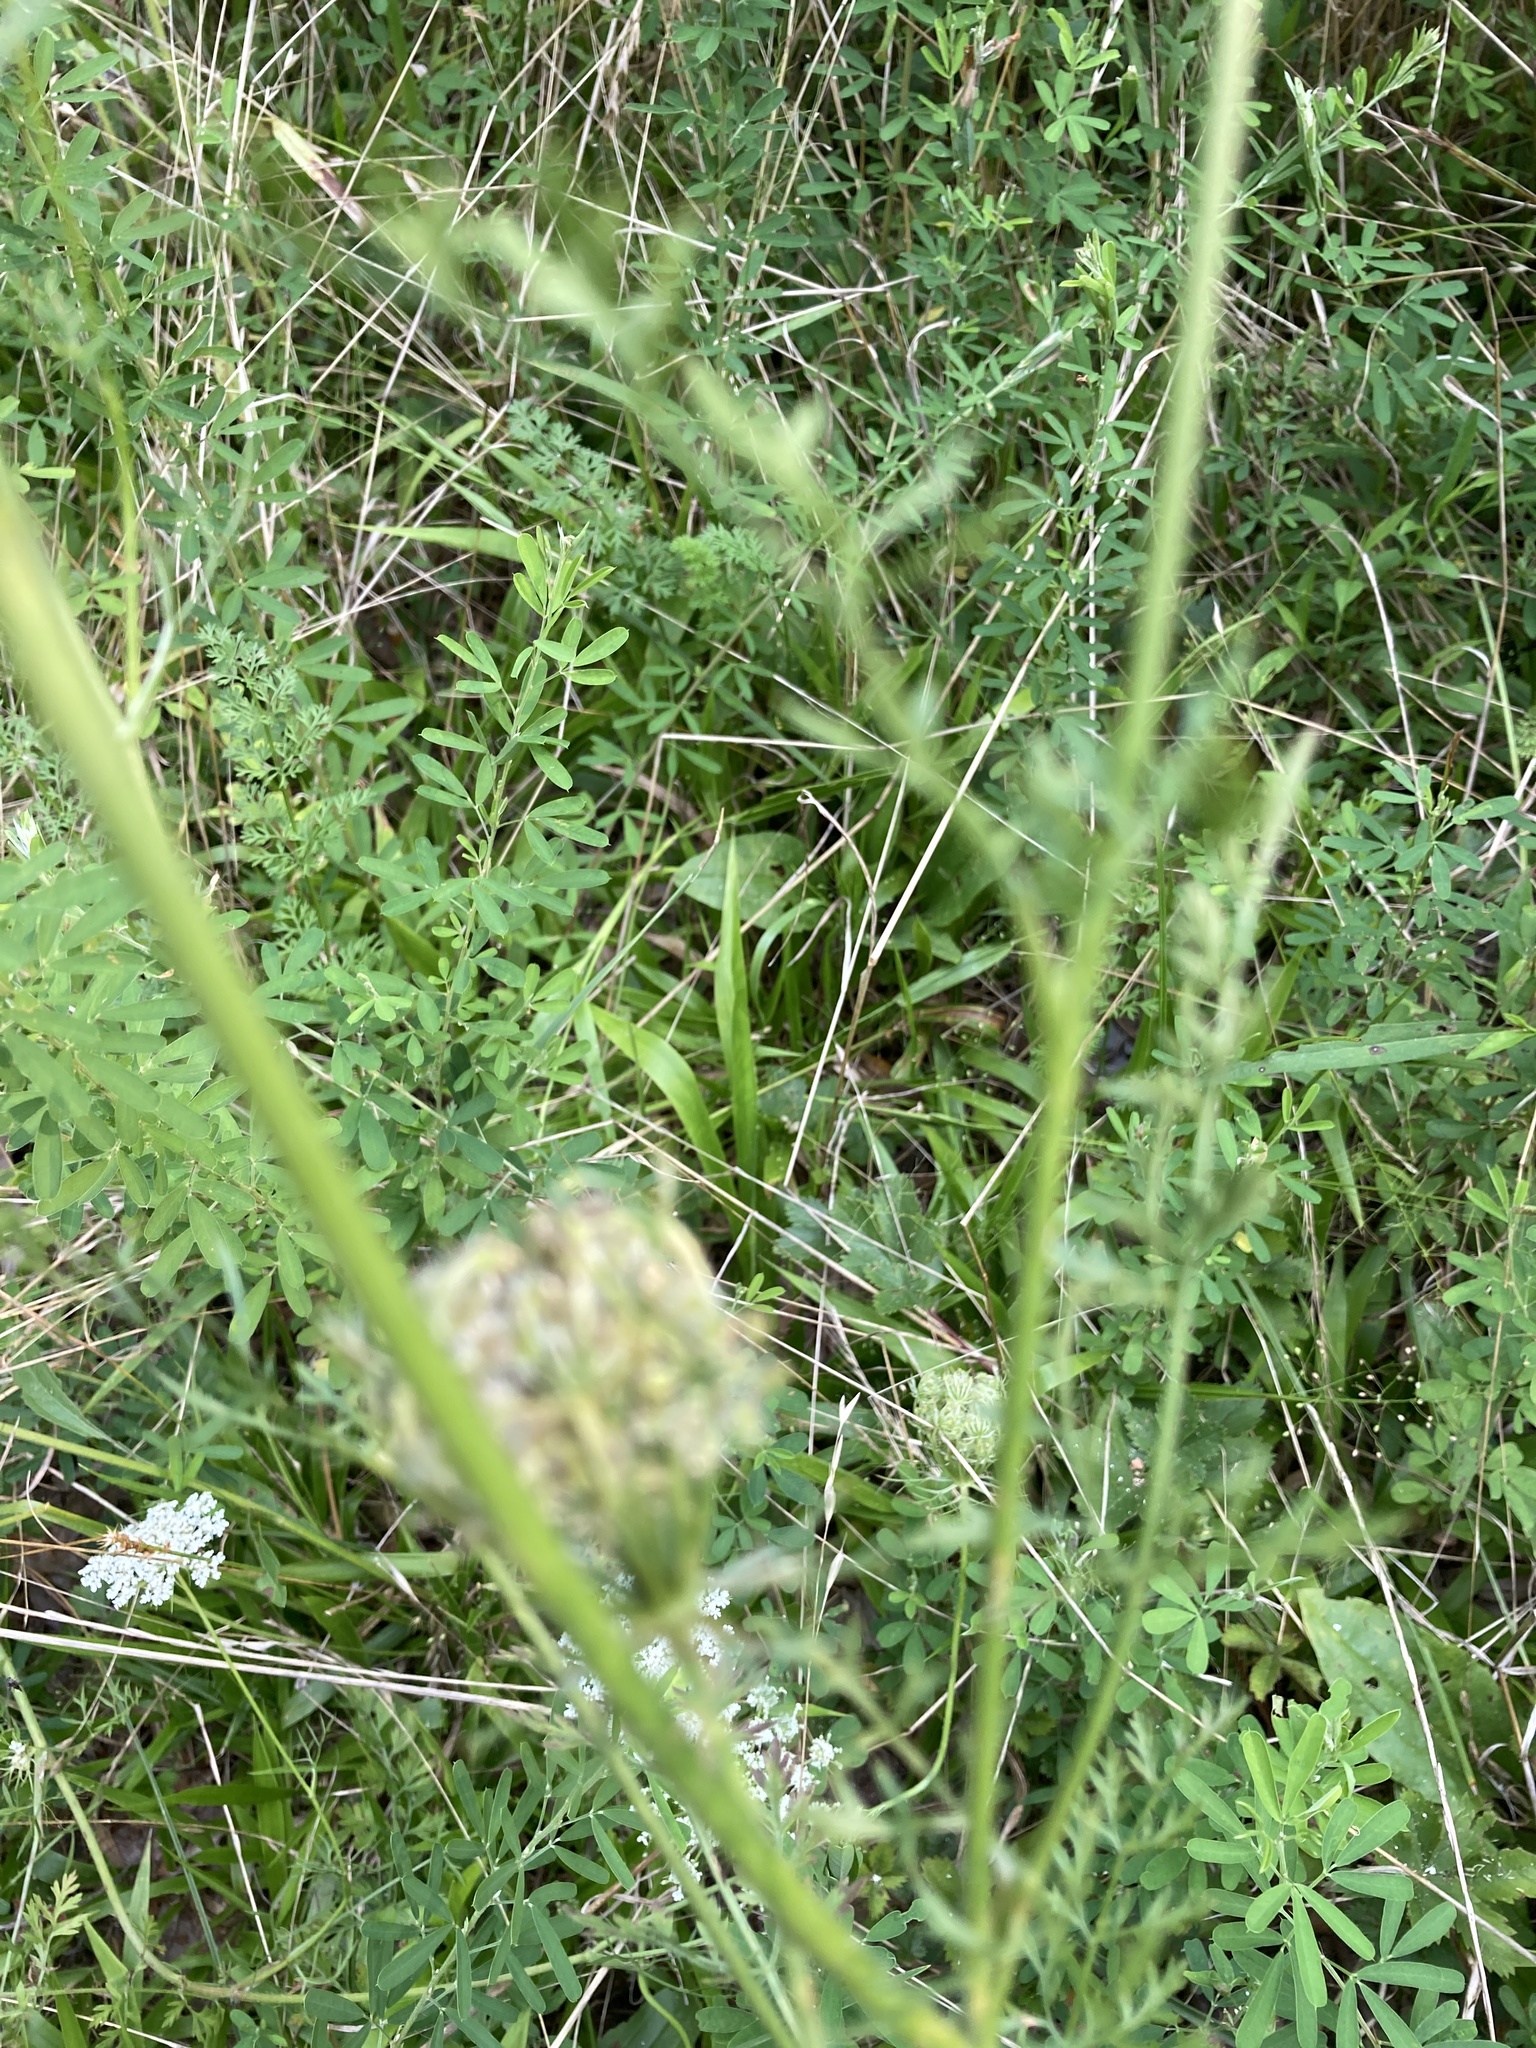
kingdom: Plantae
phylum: Tracheophyta
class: Magnoliopsida
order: Apiales
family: Apiaceae
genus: Daucus
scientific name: Daucus carota
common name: Wild carrot
